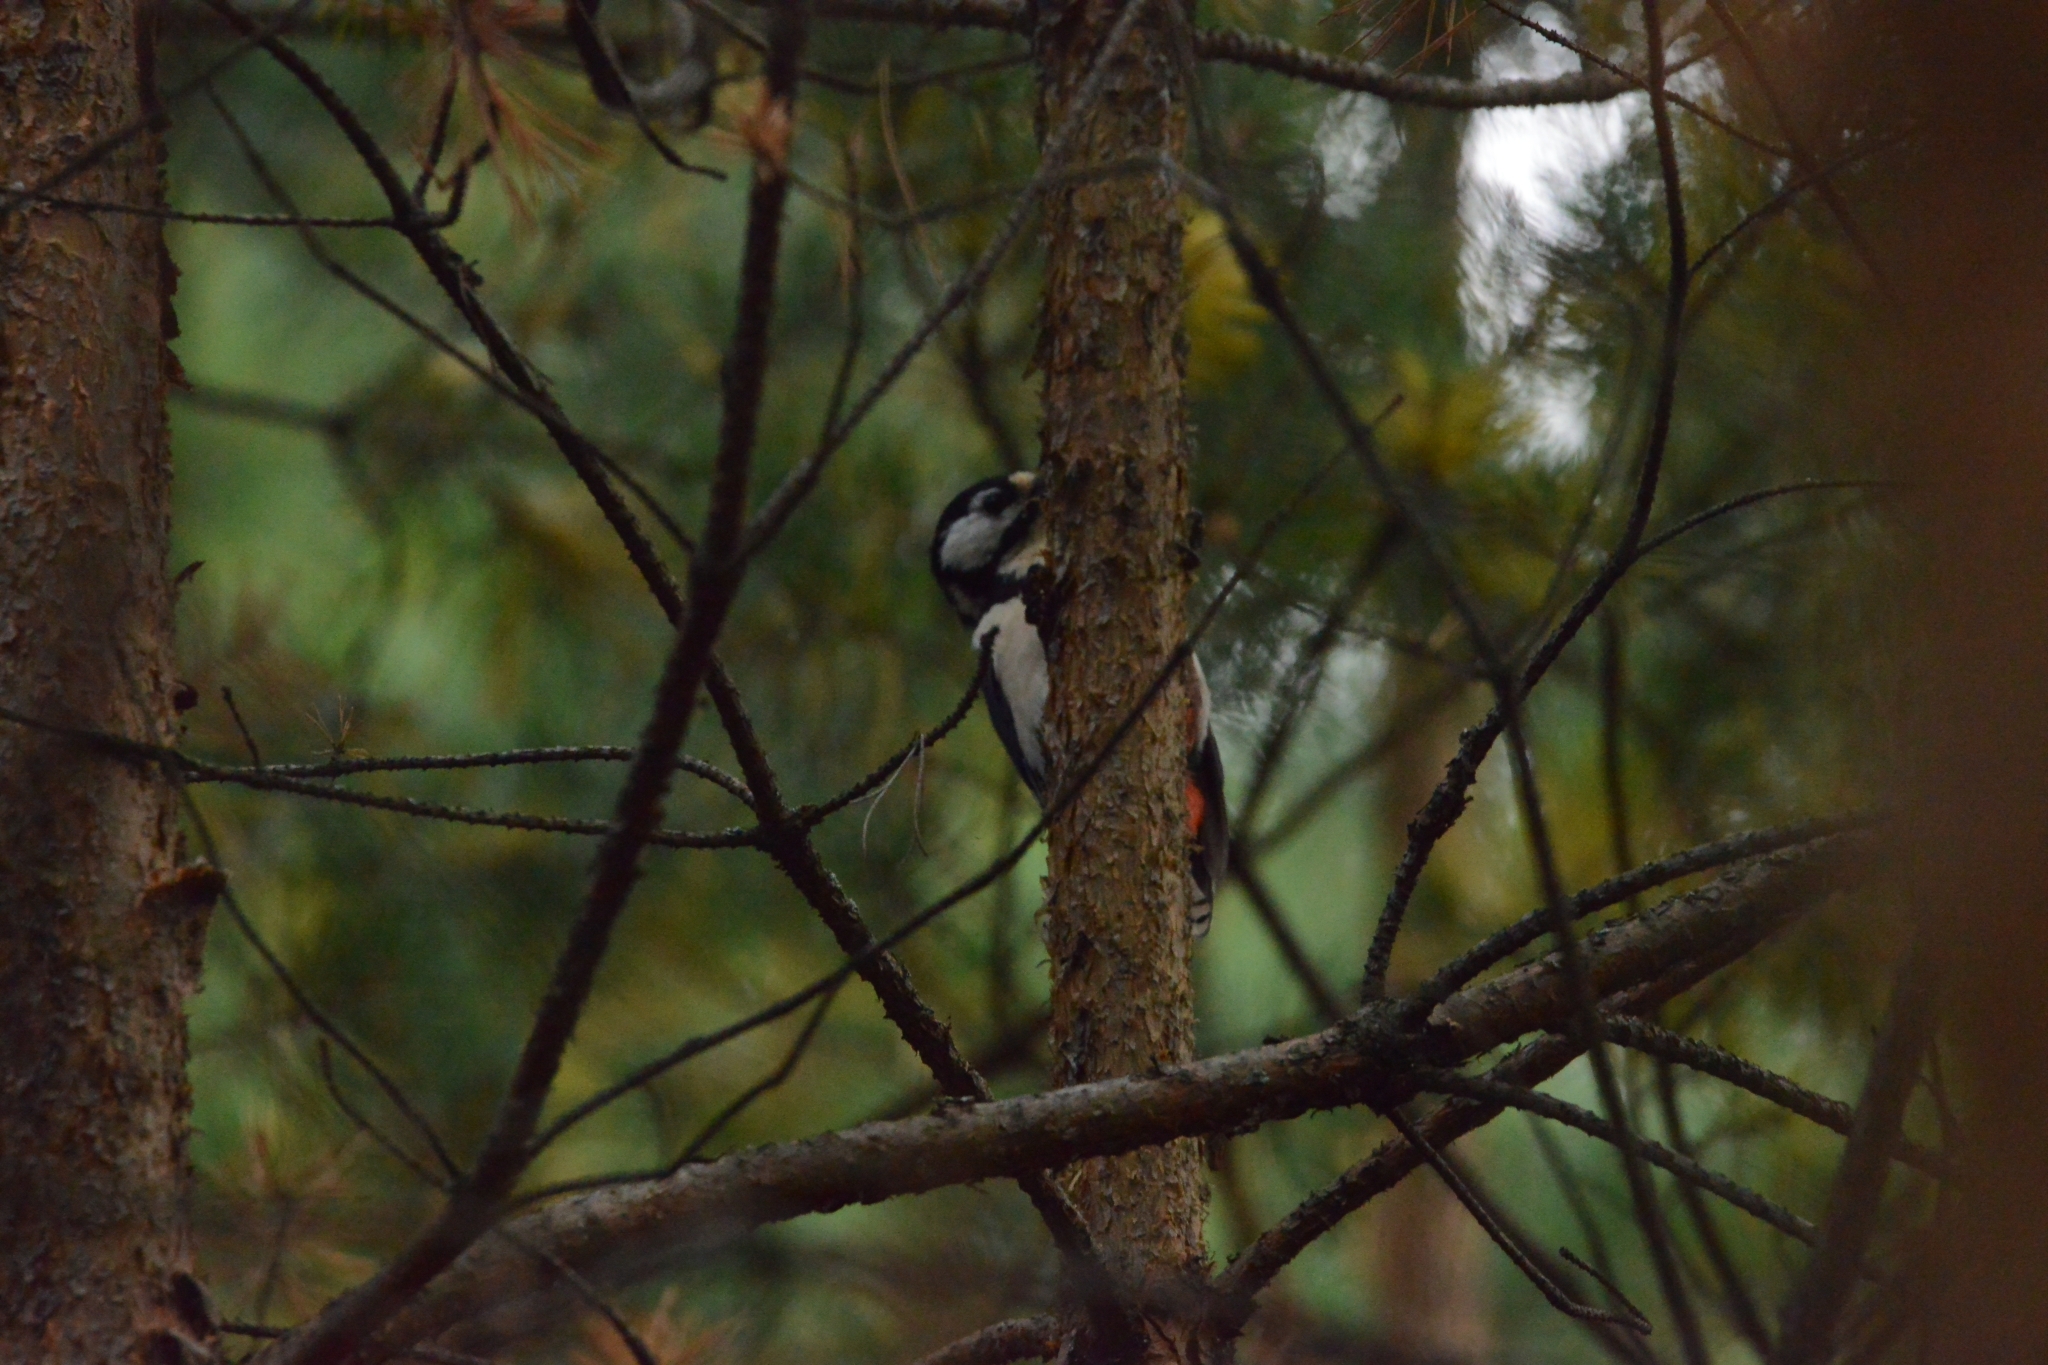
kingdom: Animalia
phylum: Chordata
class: Aves
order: Piciformes
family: Picidae
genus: Dendrocopos
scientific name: Dendrocopos major
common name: Great spotted woodpecker
